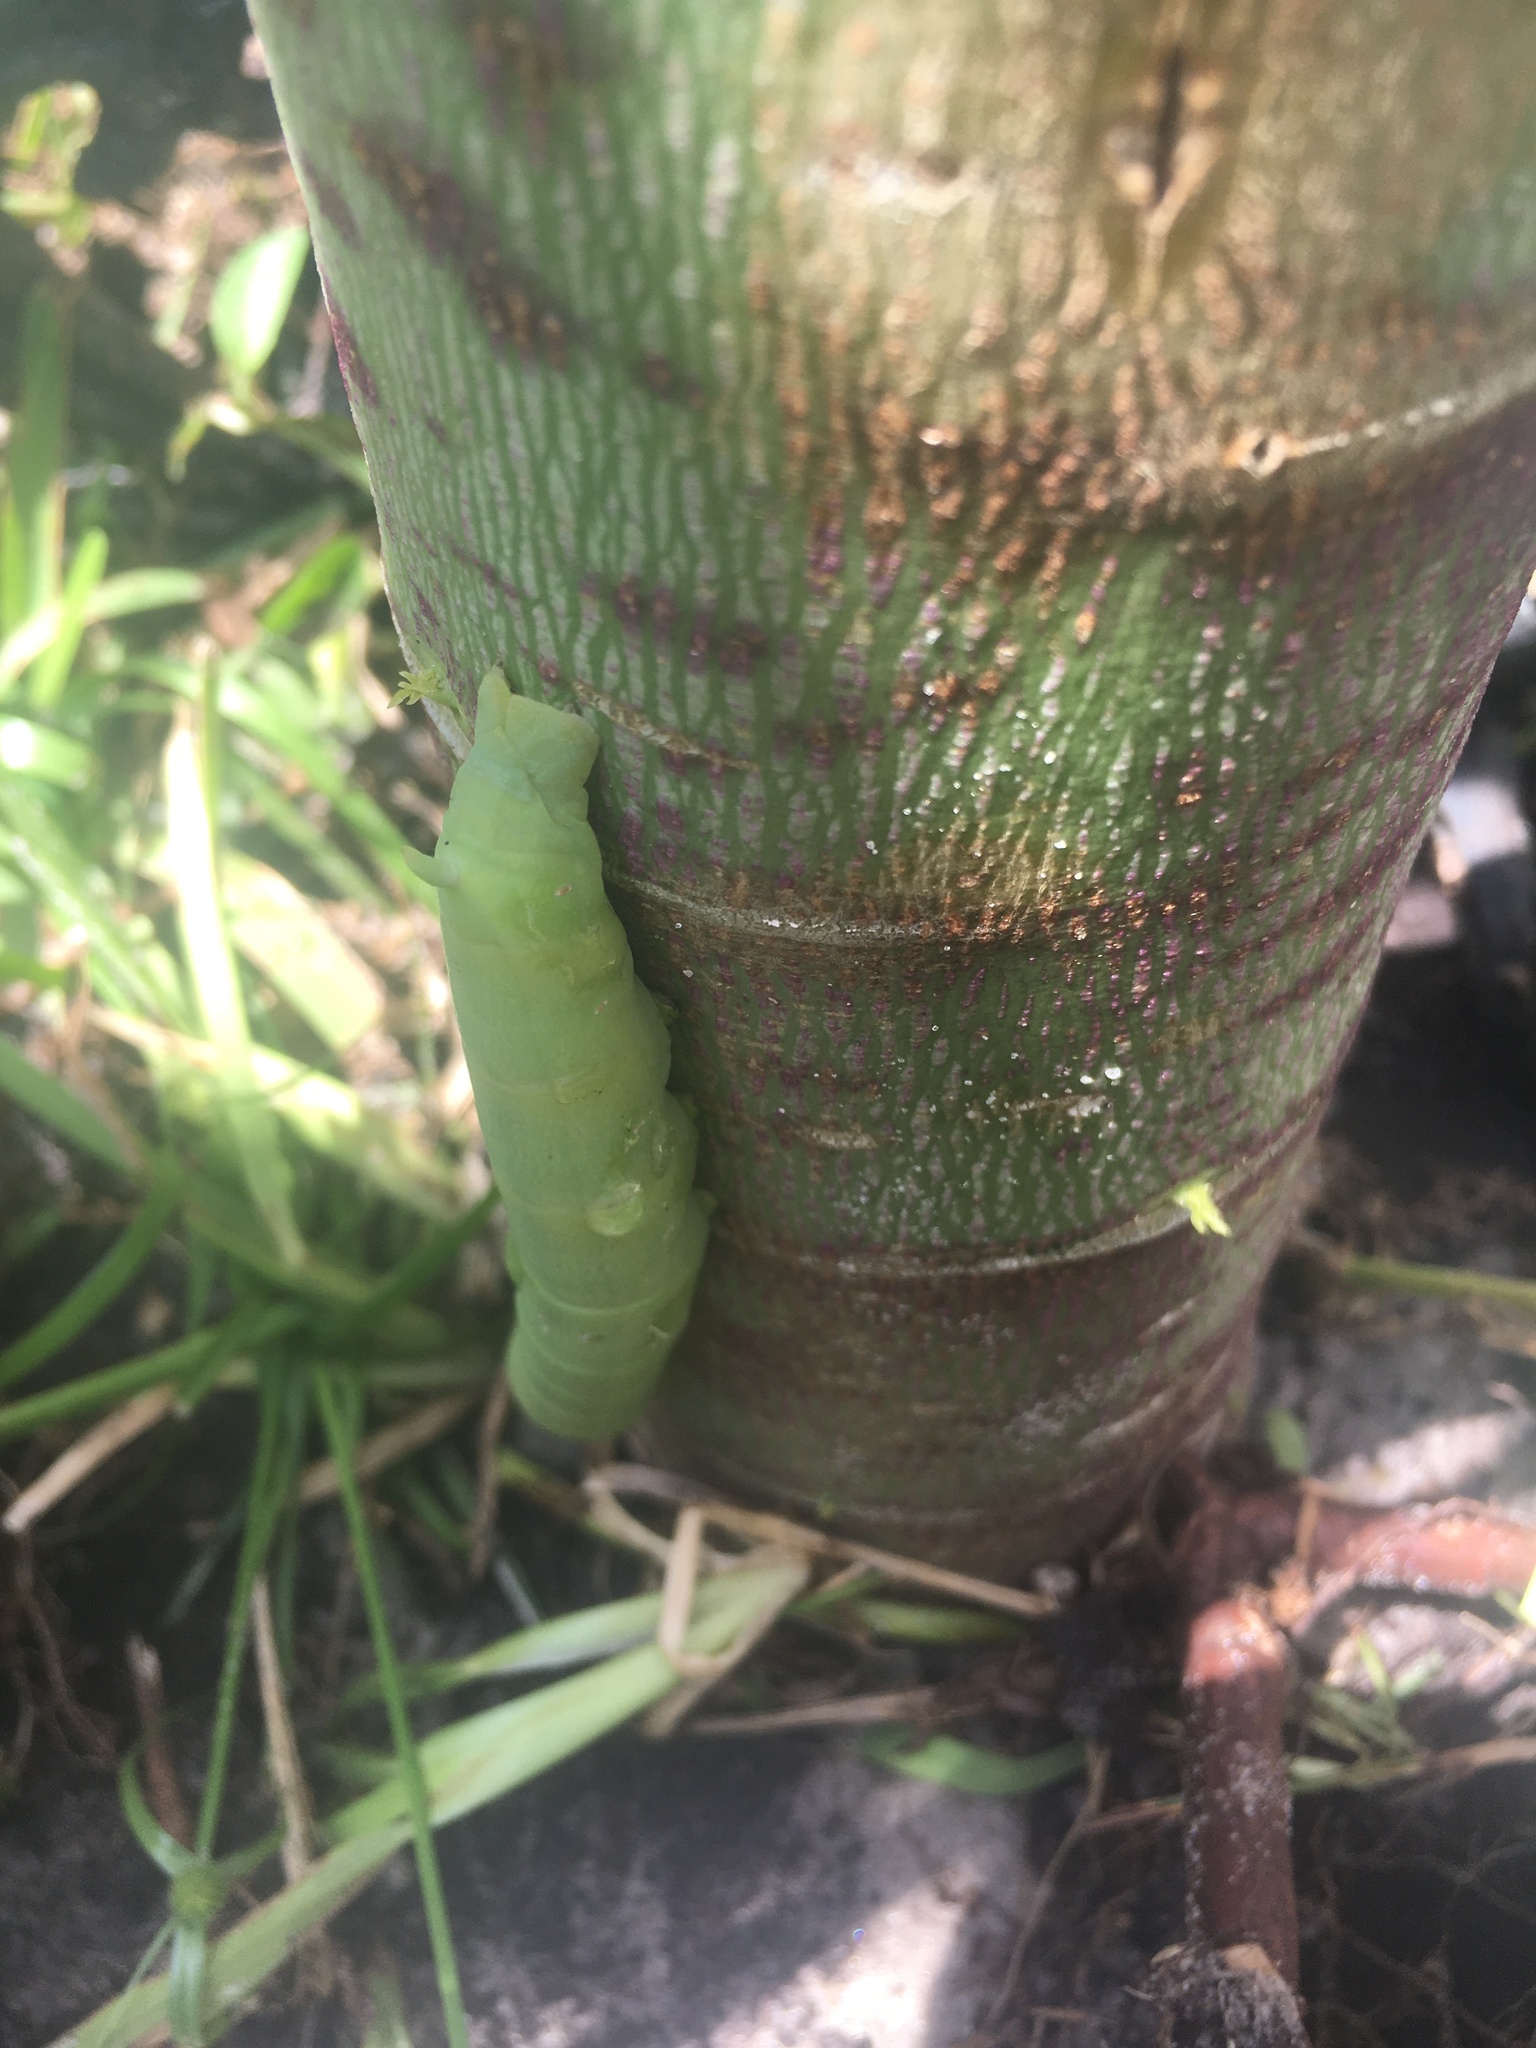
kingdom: Animalia
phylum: Arthropoda
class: Insecta
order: Lepidoptera
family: Sphingidae
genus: Erinnyis
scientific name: Erinnyis alope
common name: Alope sphinx
